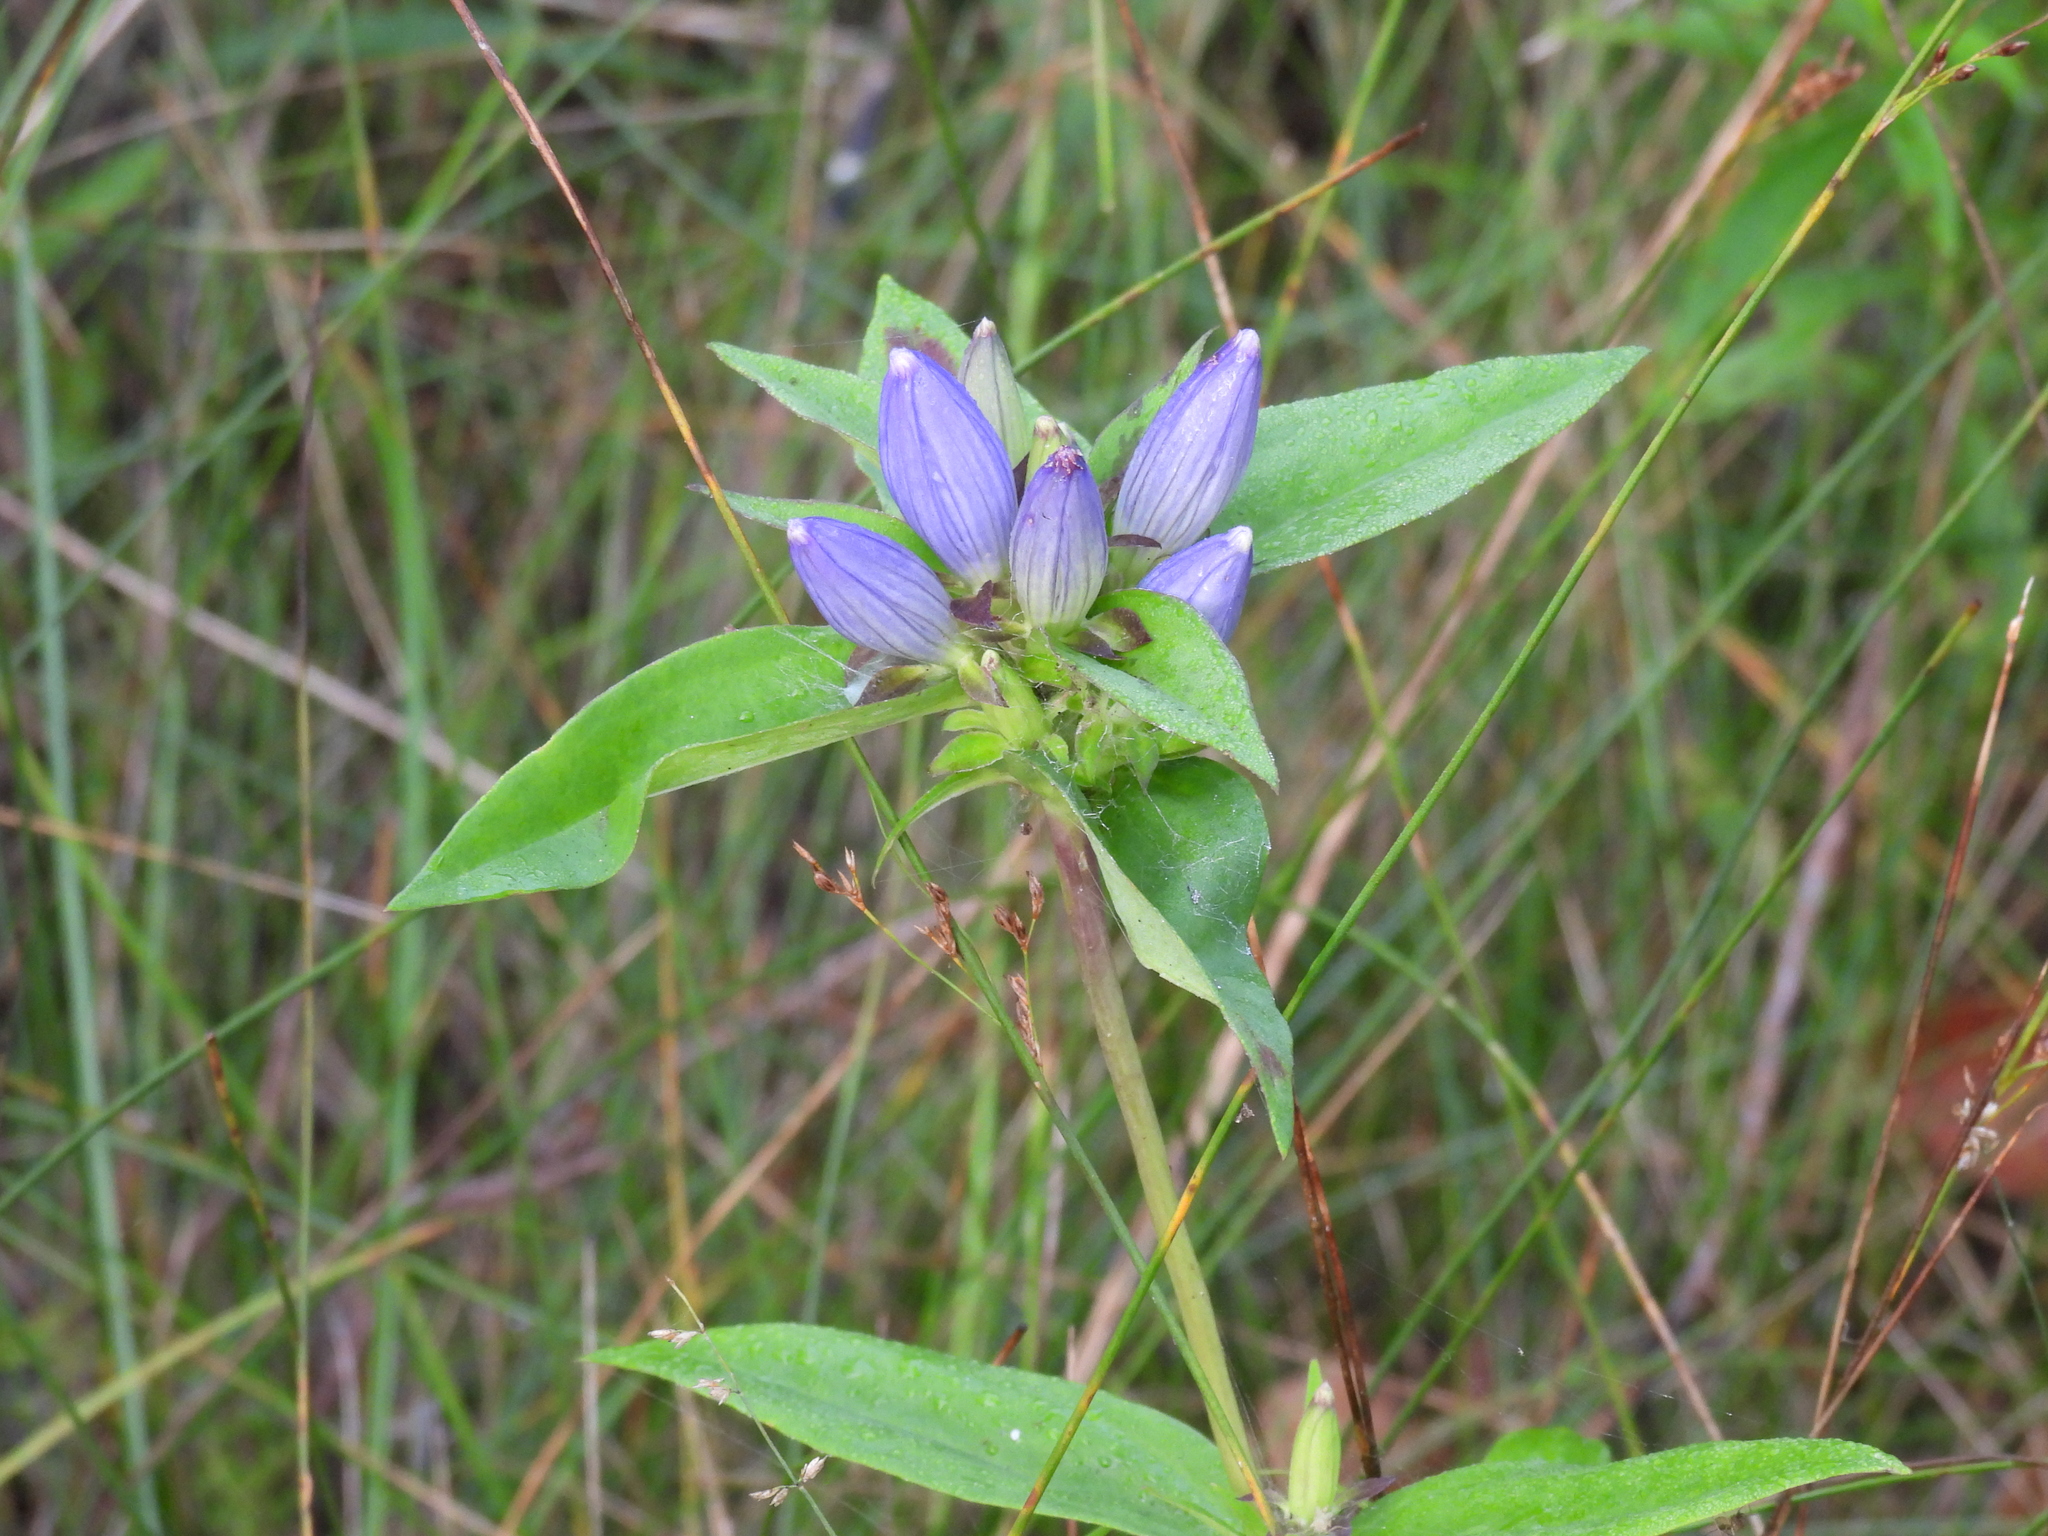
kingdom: Plantae
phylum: Tracheophyta
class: Magnoliopsida
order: Gentianales
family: Gentianaceae
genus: Gentiana
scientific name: Gentiana andrewsii
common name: Bottle gentian
